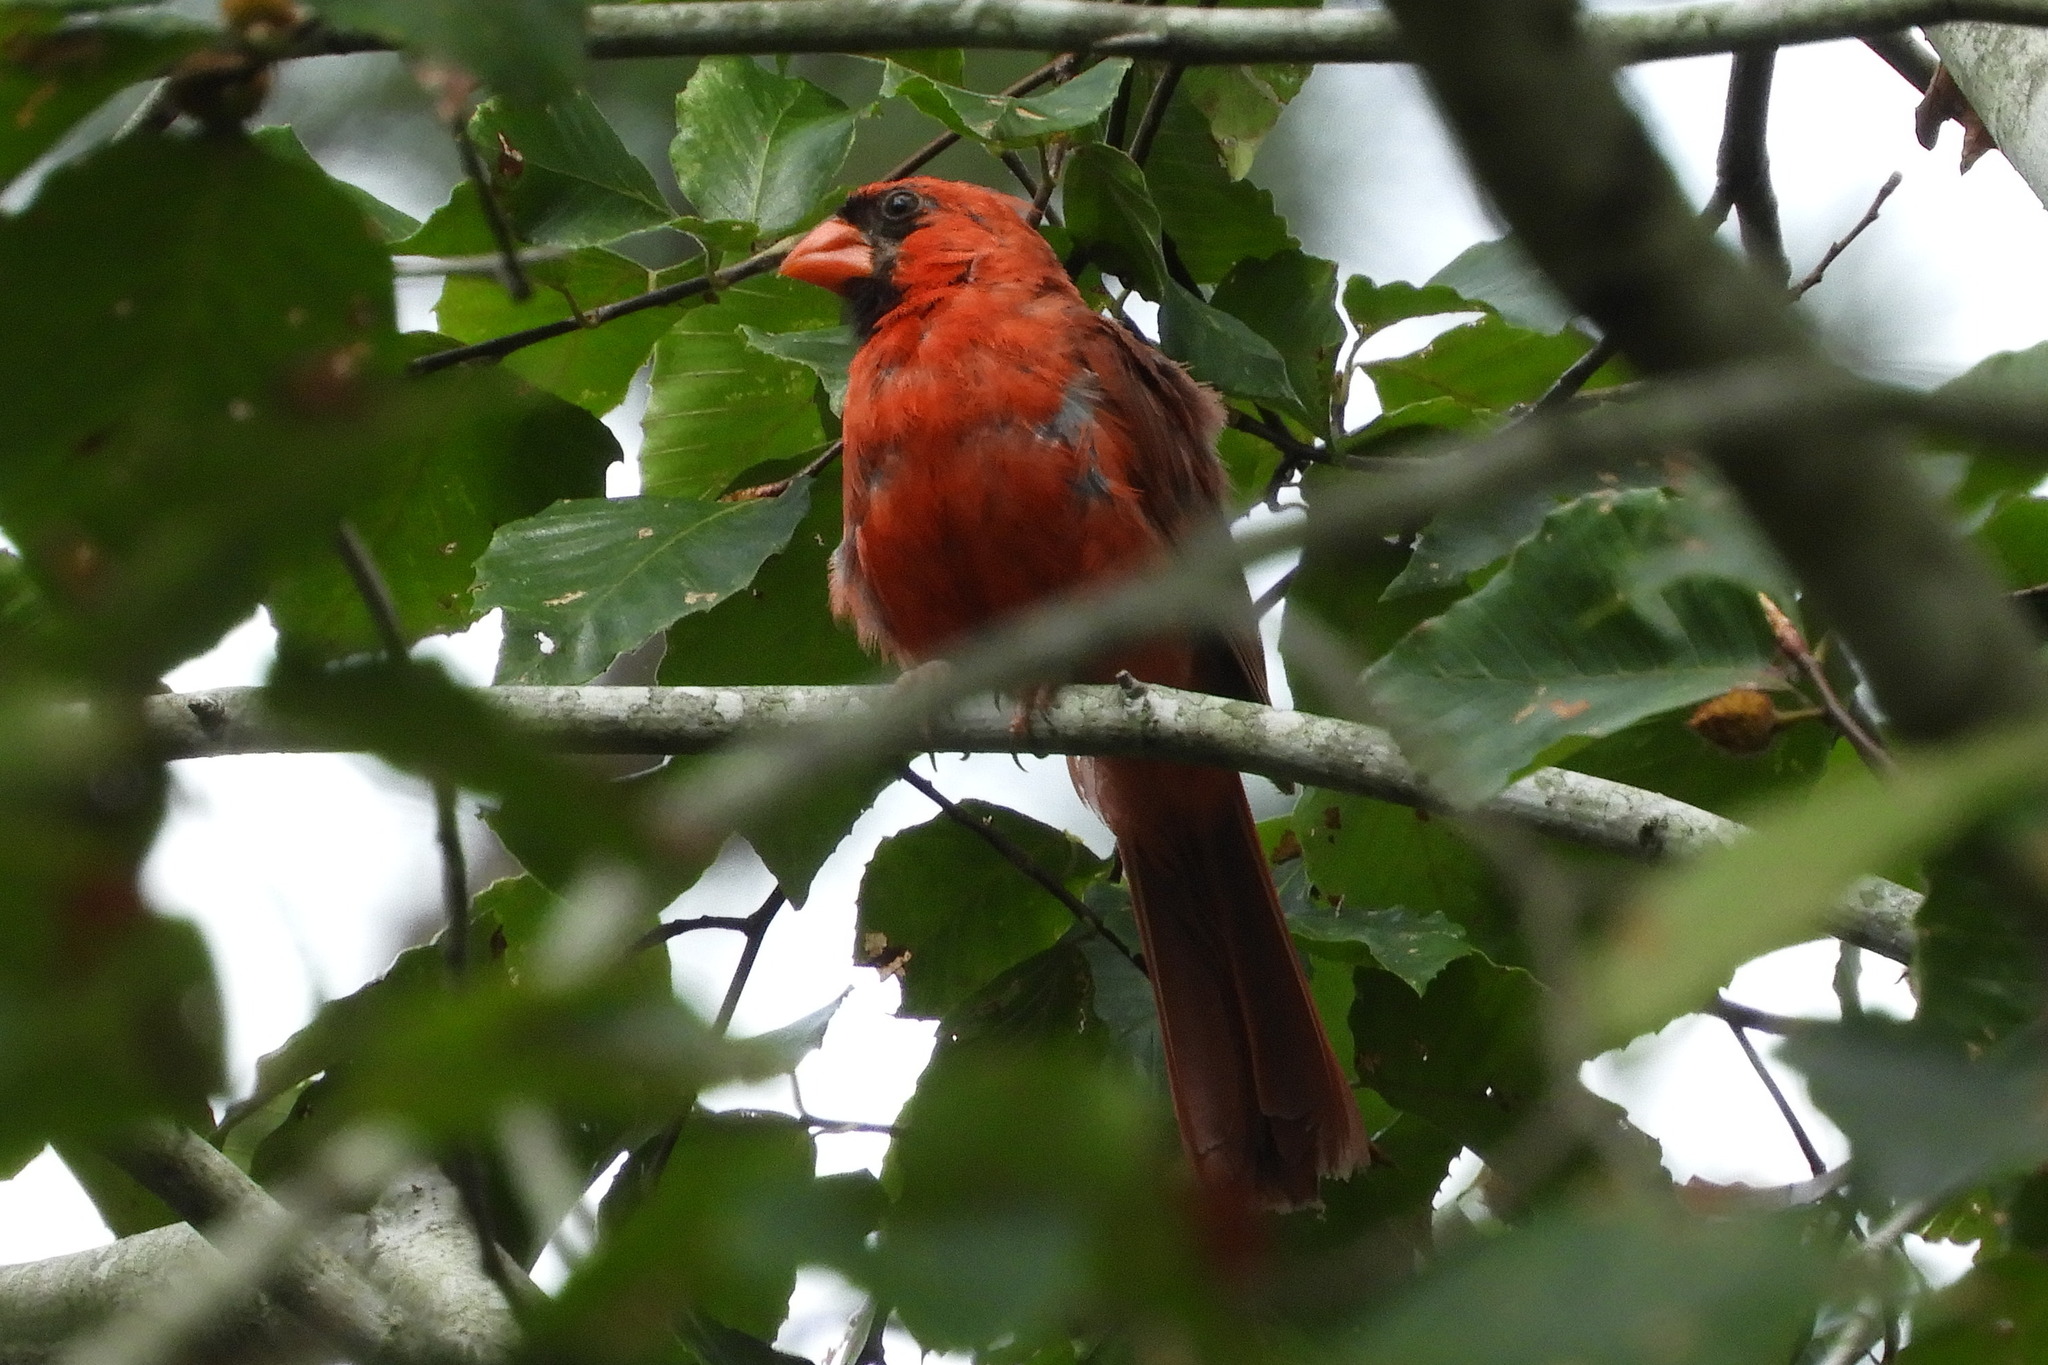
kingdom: Animalia
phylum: Chordata
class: Aves
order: Passeriformes
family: Cardinalidae
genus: Cardinalis
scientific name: Cardinalis cardinalis
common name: Northern cardinal
